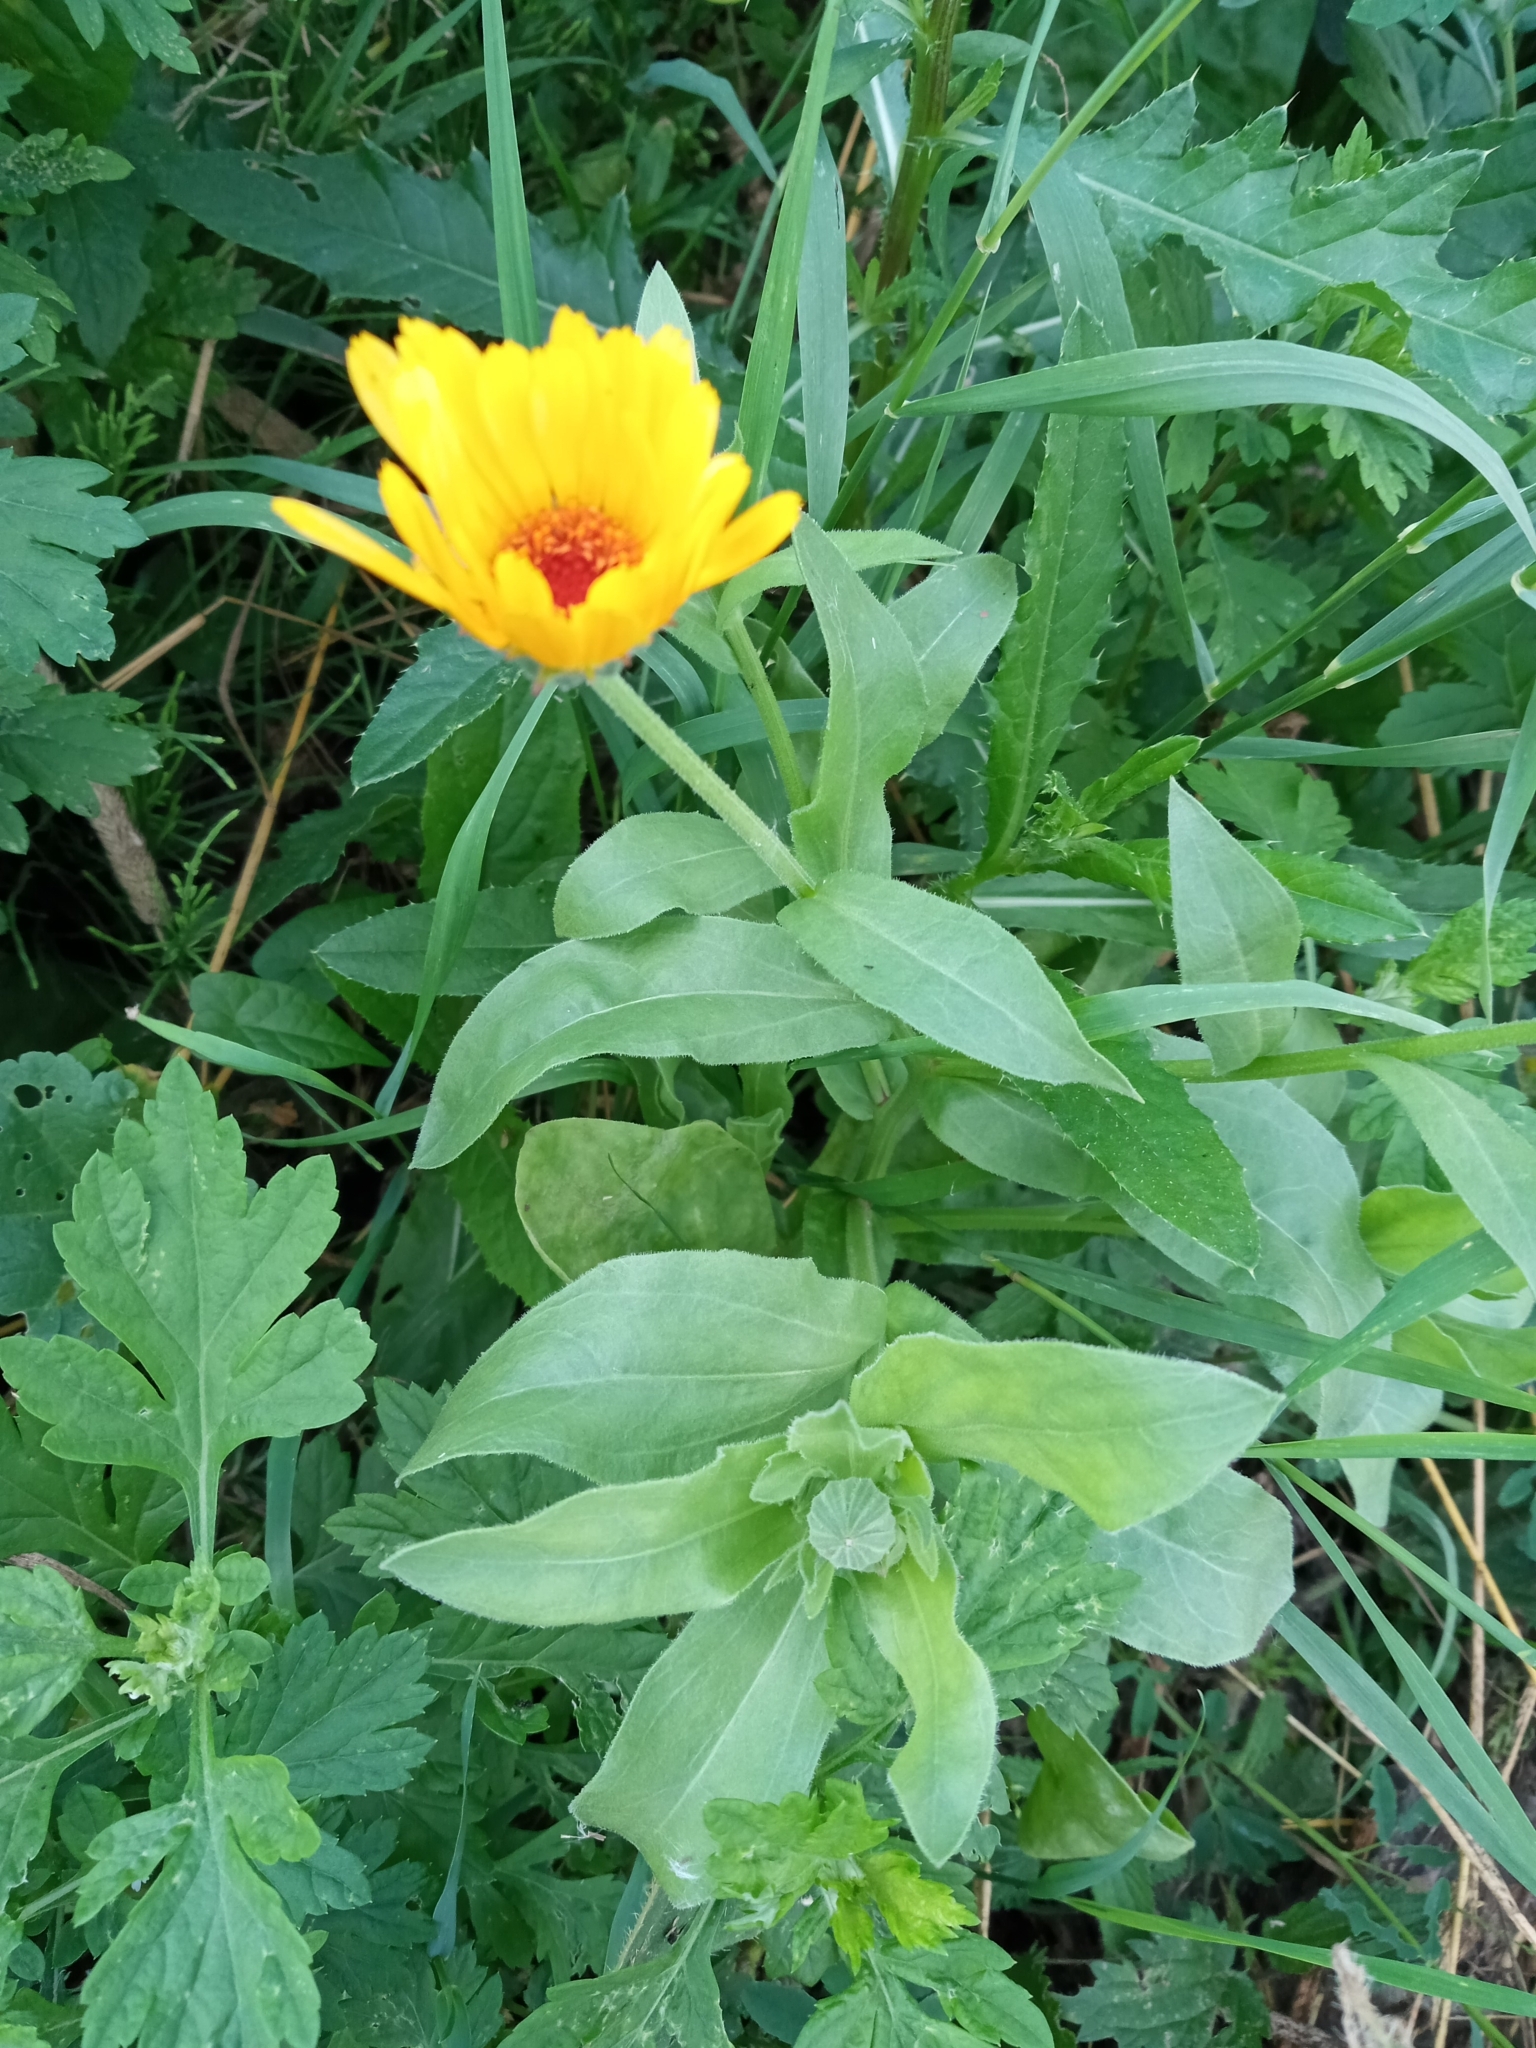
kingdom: Plantae
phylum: Tracheophyta
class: Magnoliopsida
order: Asterales
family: Asteraceae
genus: Calendula
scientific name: Calendula officinalis
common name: Pot marigold
